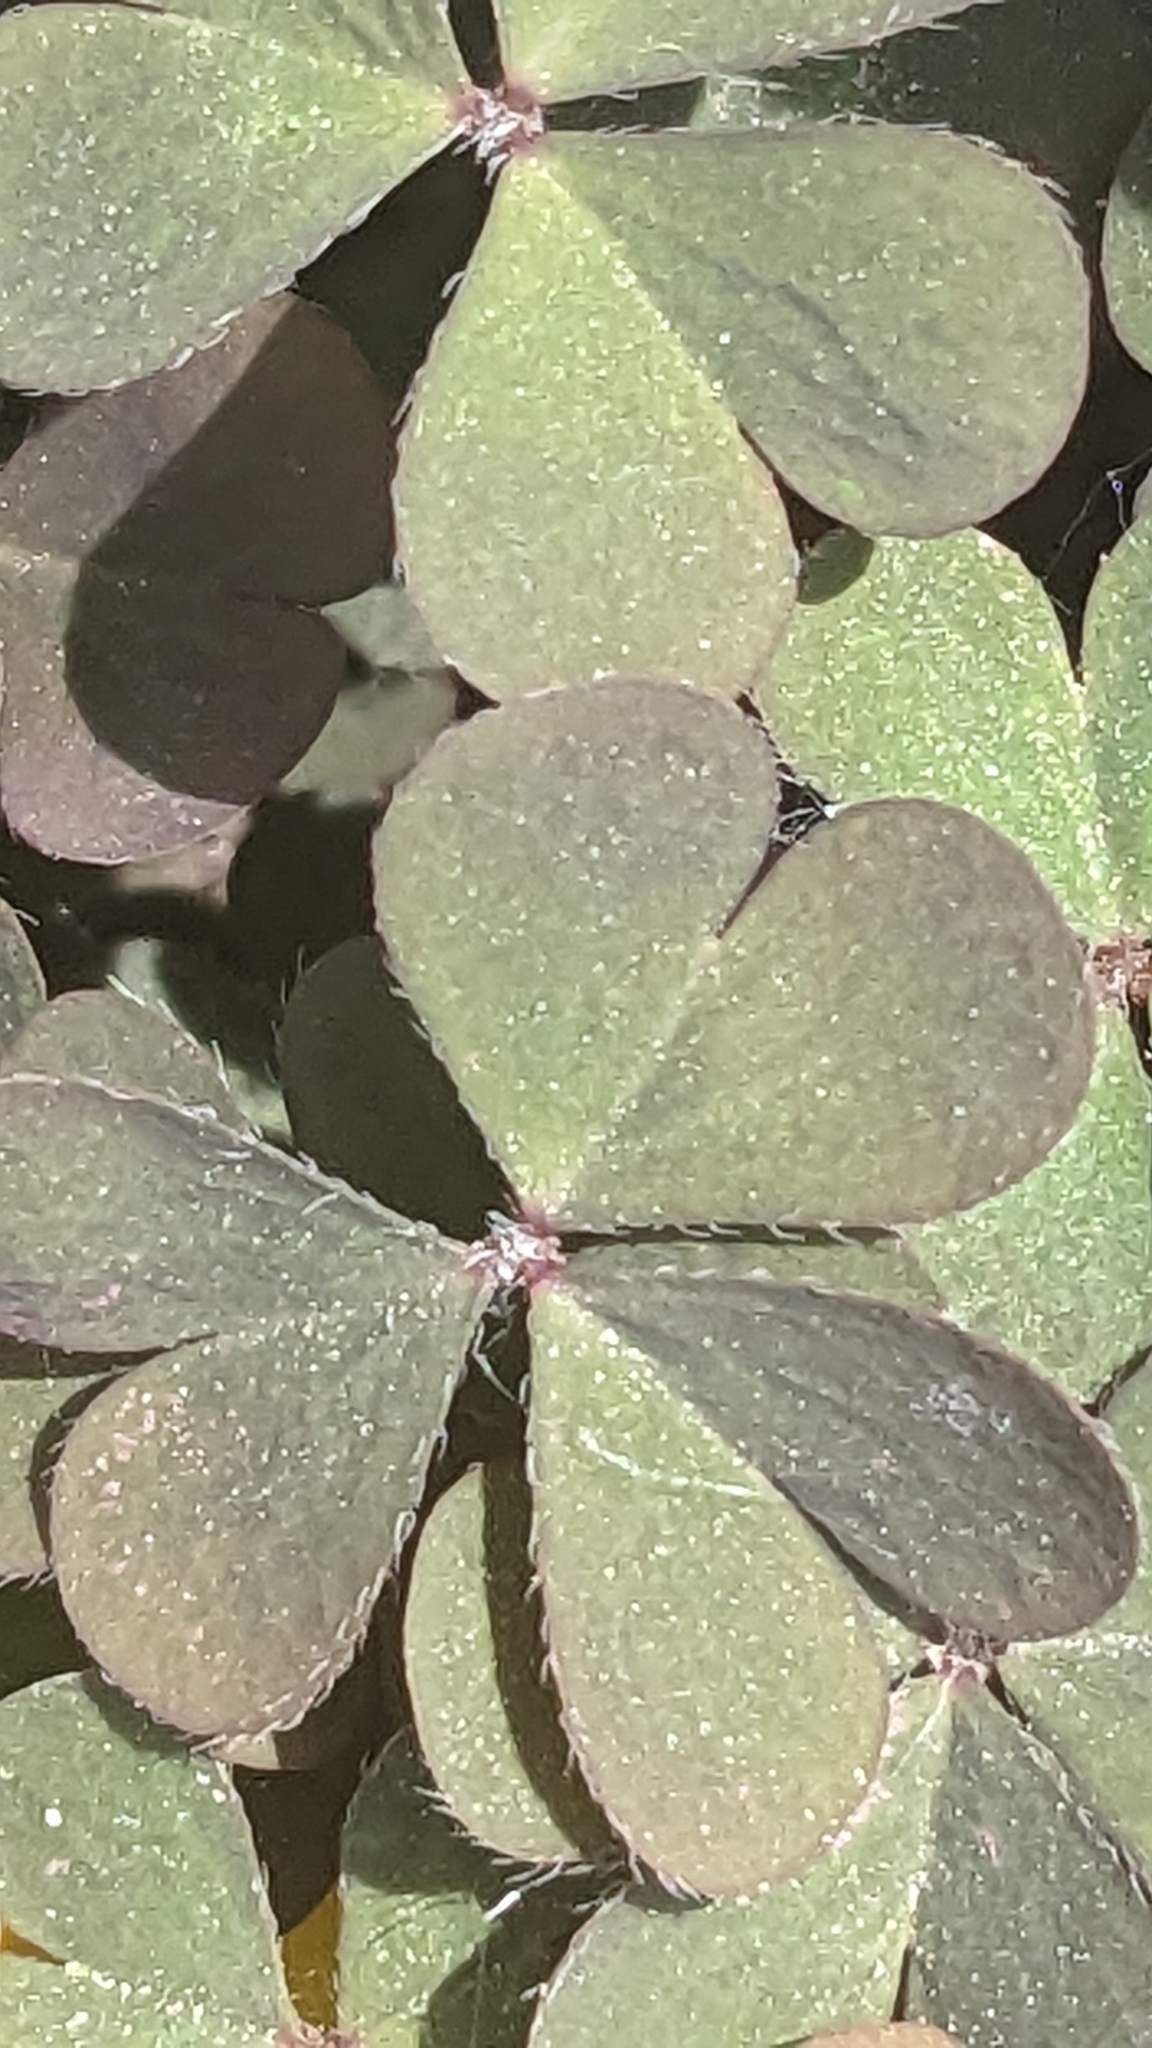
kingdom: Plantae
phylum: Tracheophyta
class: Magnoliopsida
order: Oxalidales
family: Oxalidaceae
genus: Oxalis
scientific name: Oxalis corniculata
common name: Procumbent yellow-sorrel
